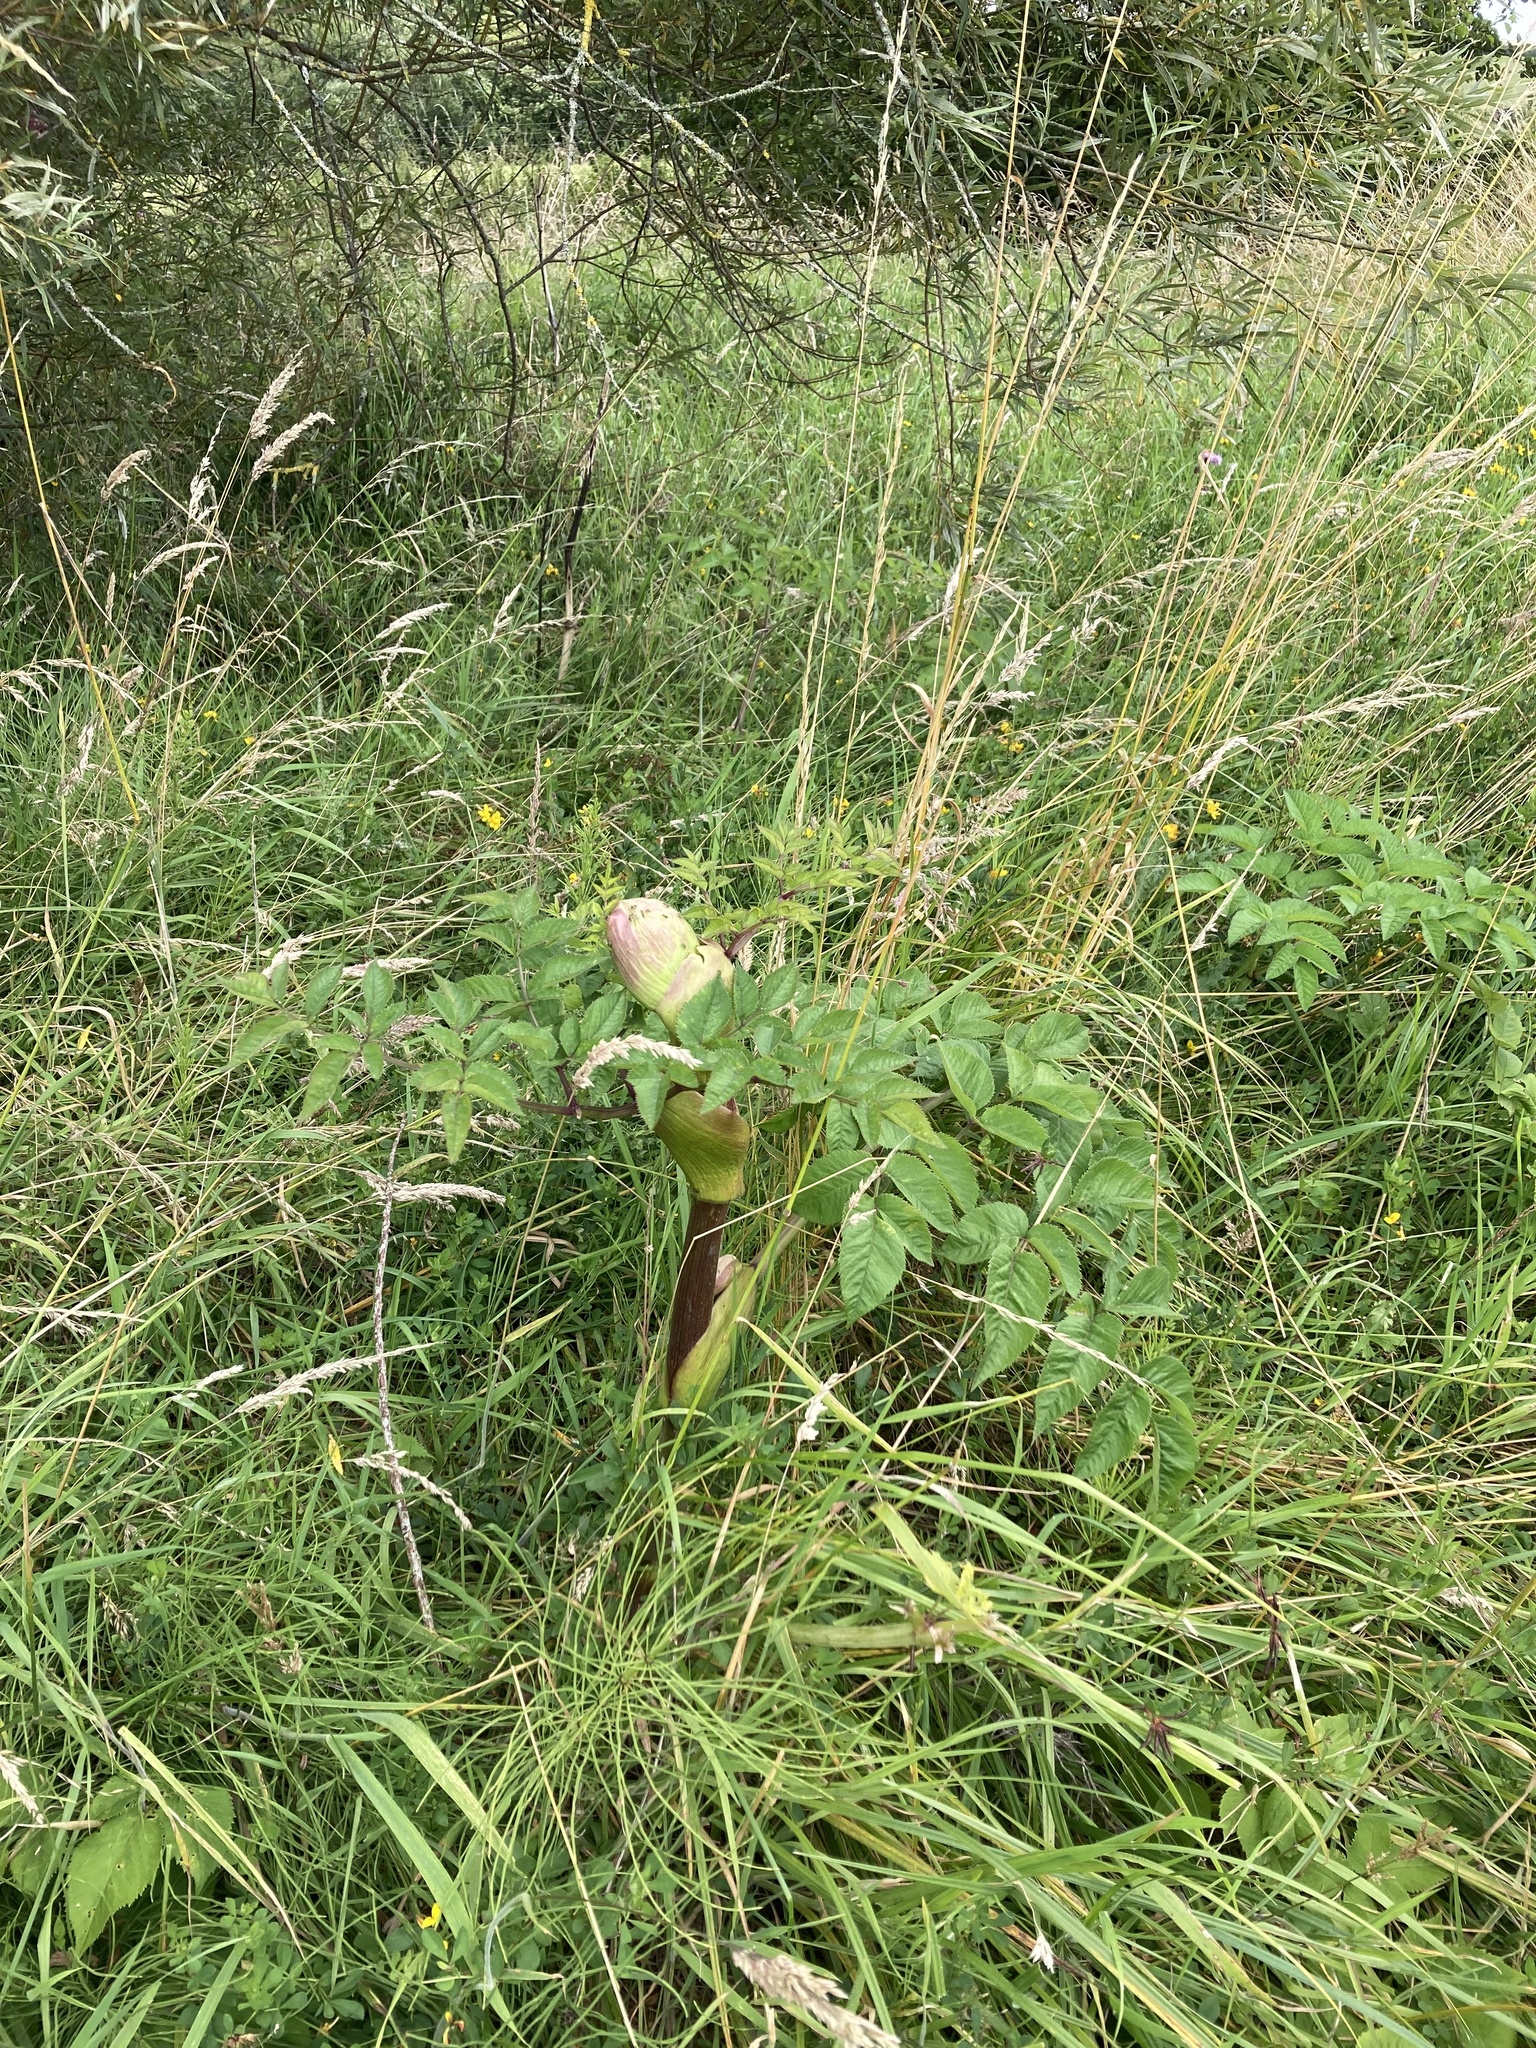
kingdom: Plantae
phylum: Tracheophyta
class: Magnoliopsida
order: Apiales
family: Apiaceae
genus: Angelica
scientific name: Angelica sylvestris
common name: Wild angelica
